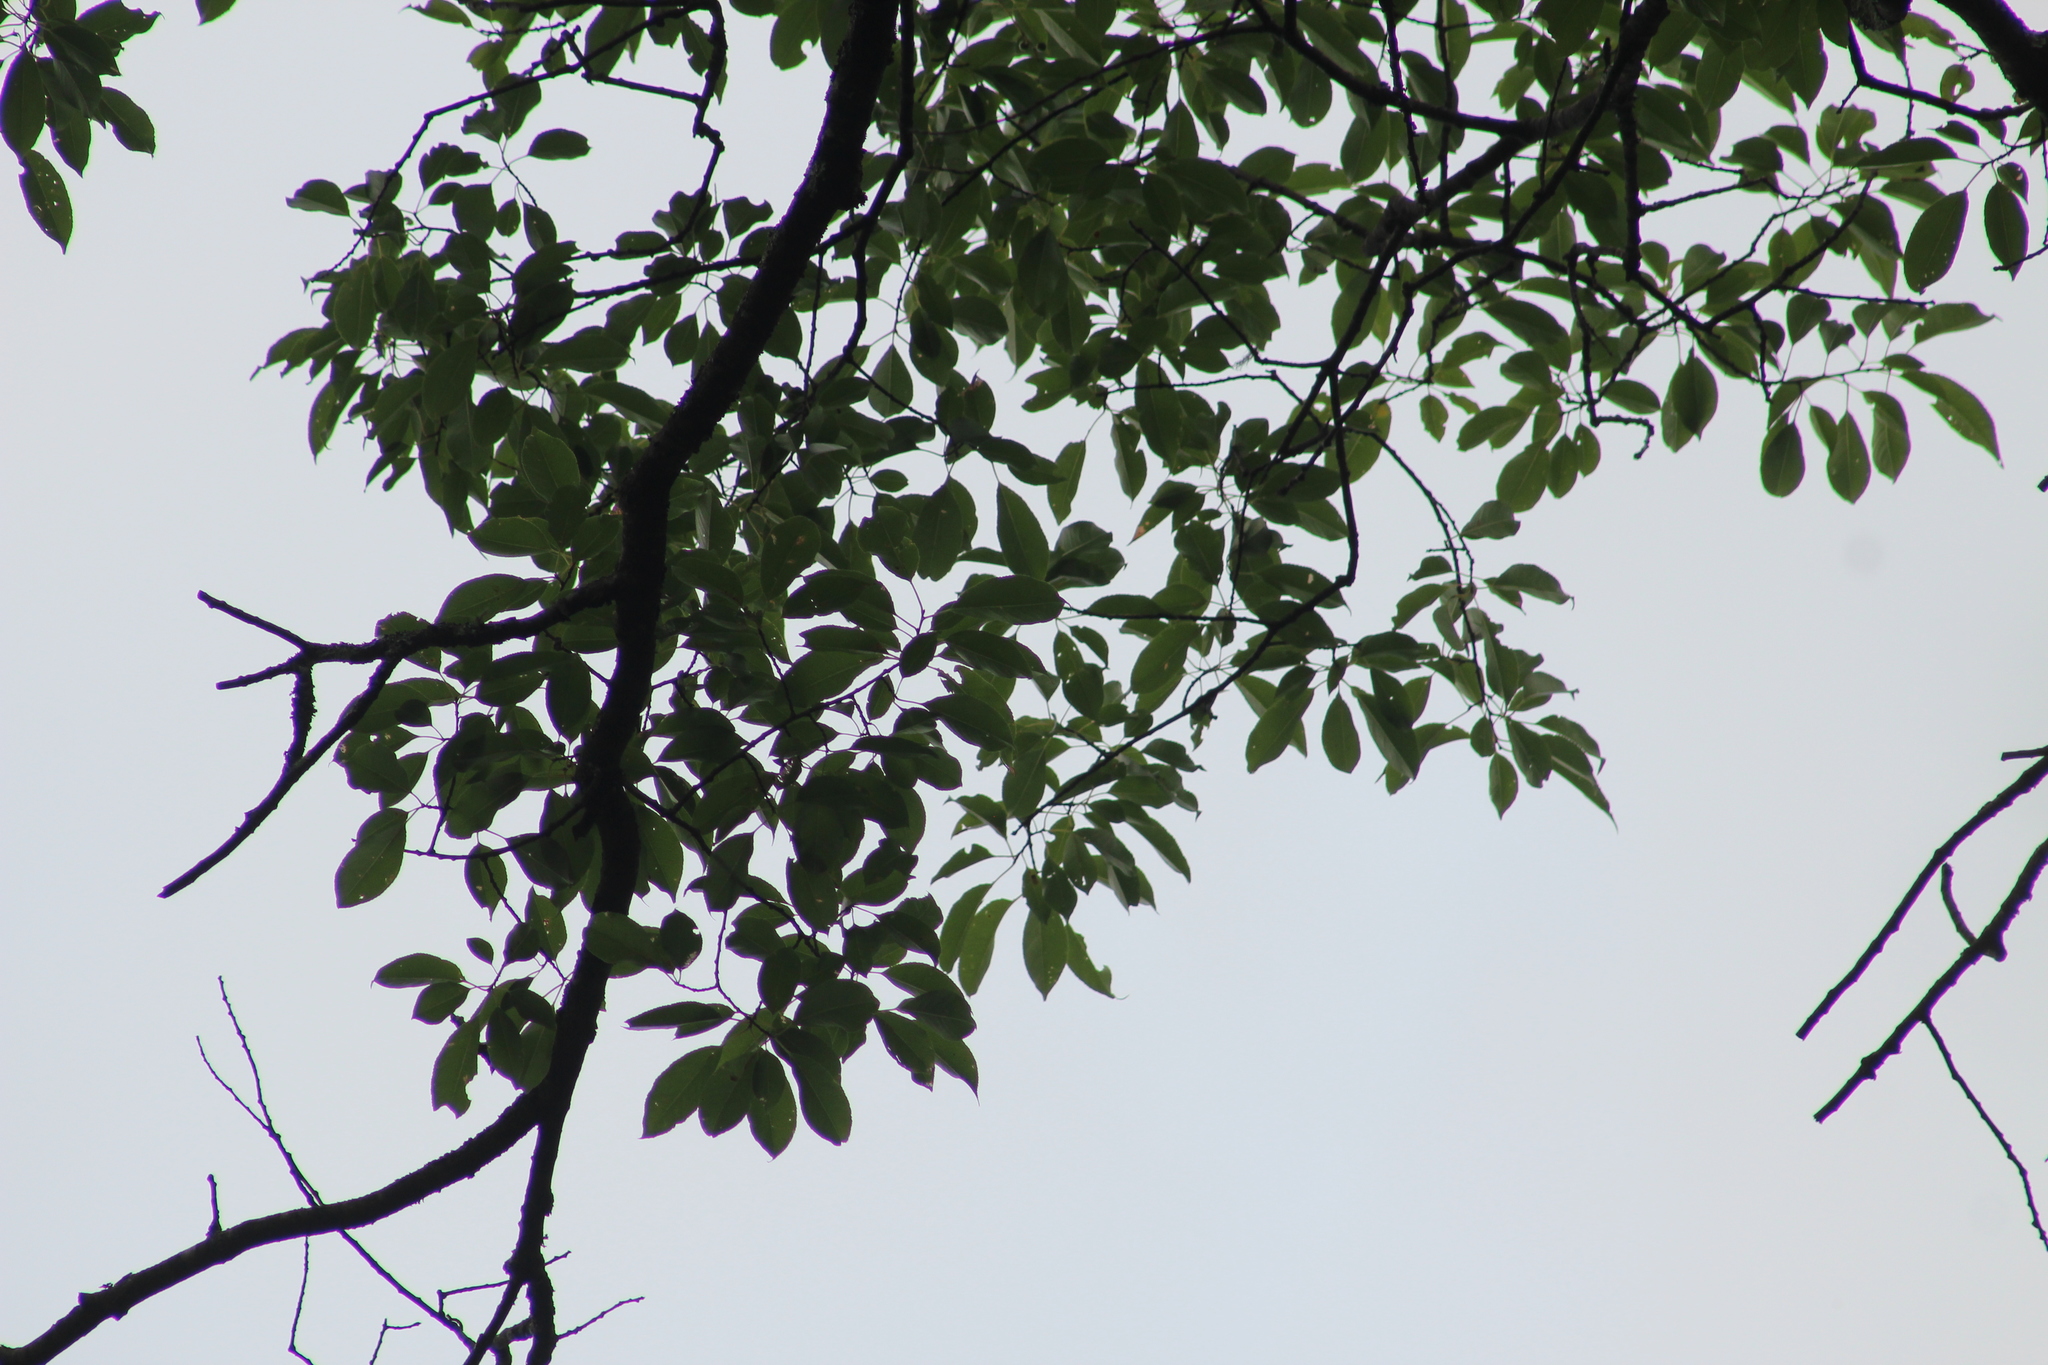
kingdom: Plantae
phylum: Tracheophyta
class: Magnoliopsida
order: Rosales
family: Rosaceae
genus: Prunus
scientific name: Prunus serotina
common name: Black cherry
